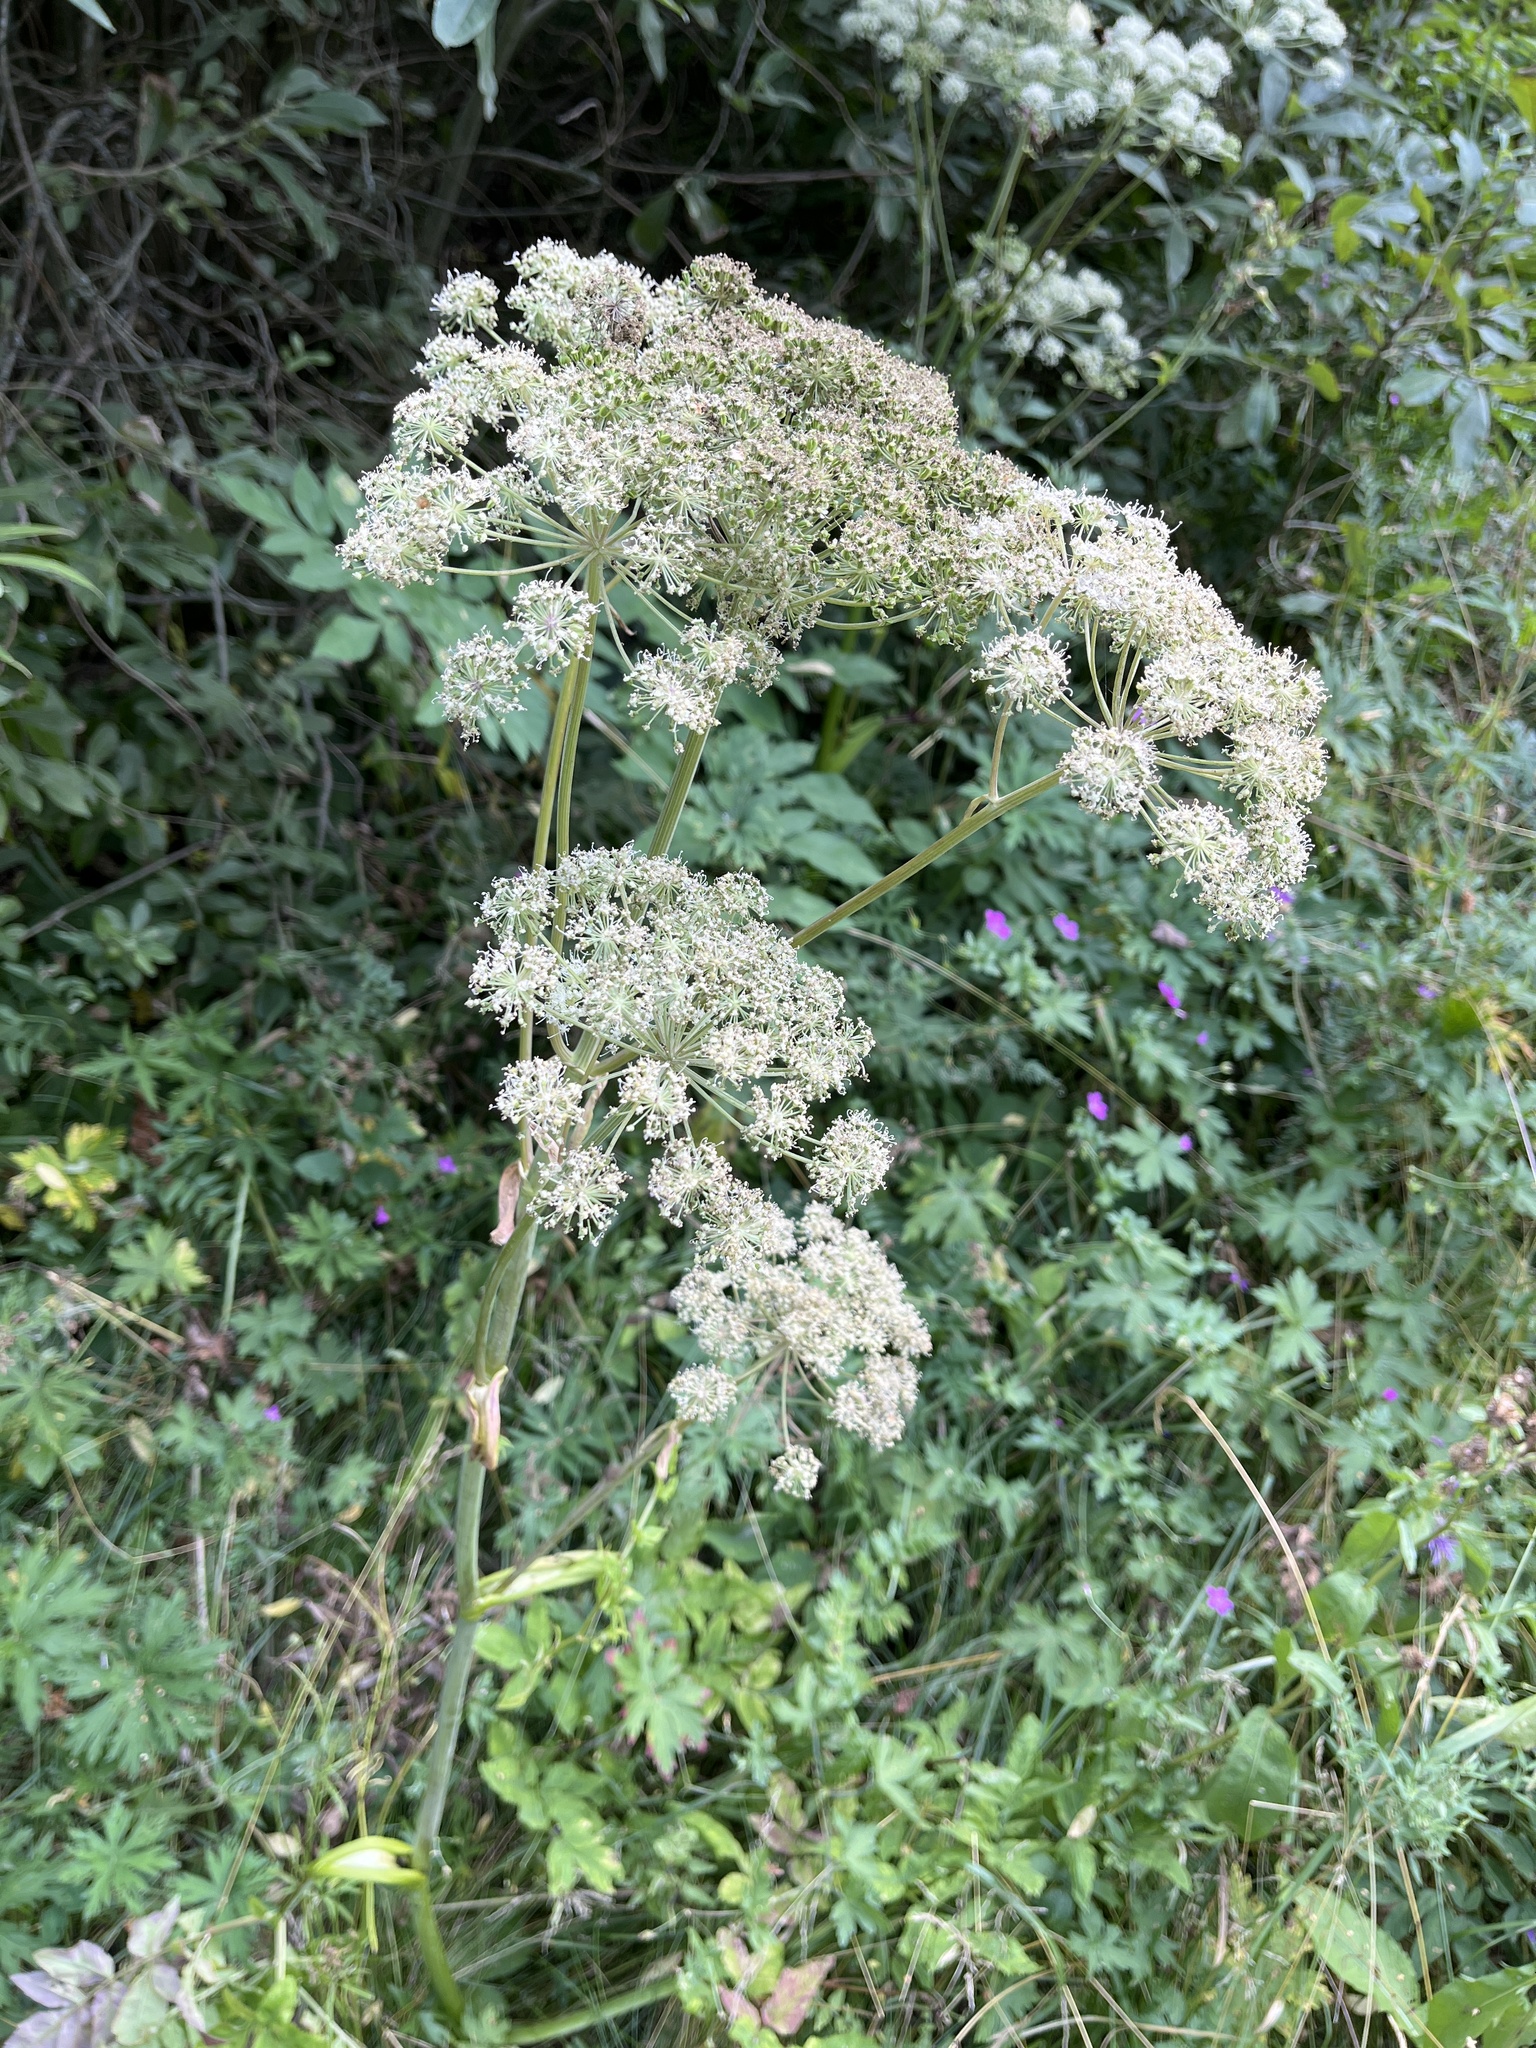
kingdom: Plantae
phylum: Tracheophyta
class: Magnoliopsida
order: Apiales
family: Apiaceae
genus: Angelica
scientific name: Angelica sylvestris
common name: Wild angelica
